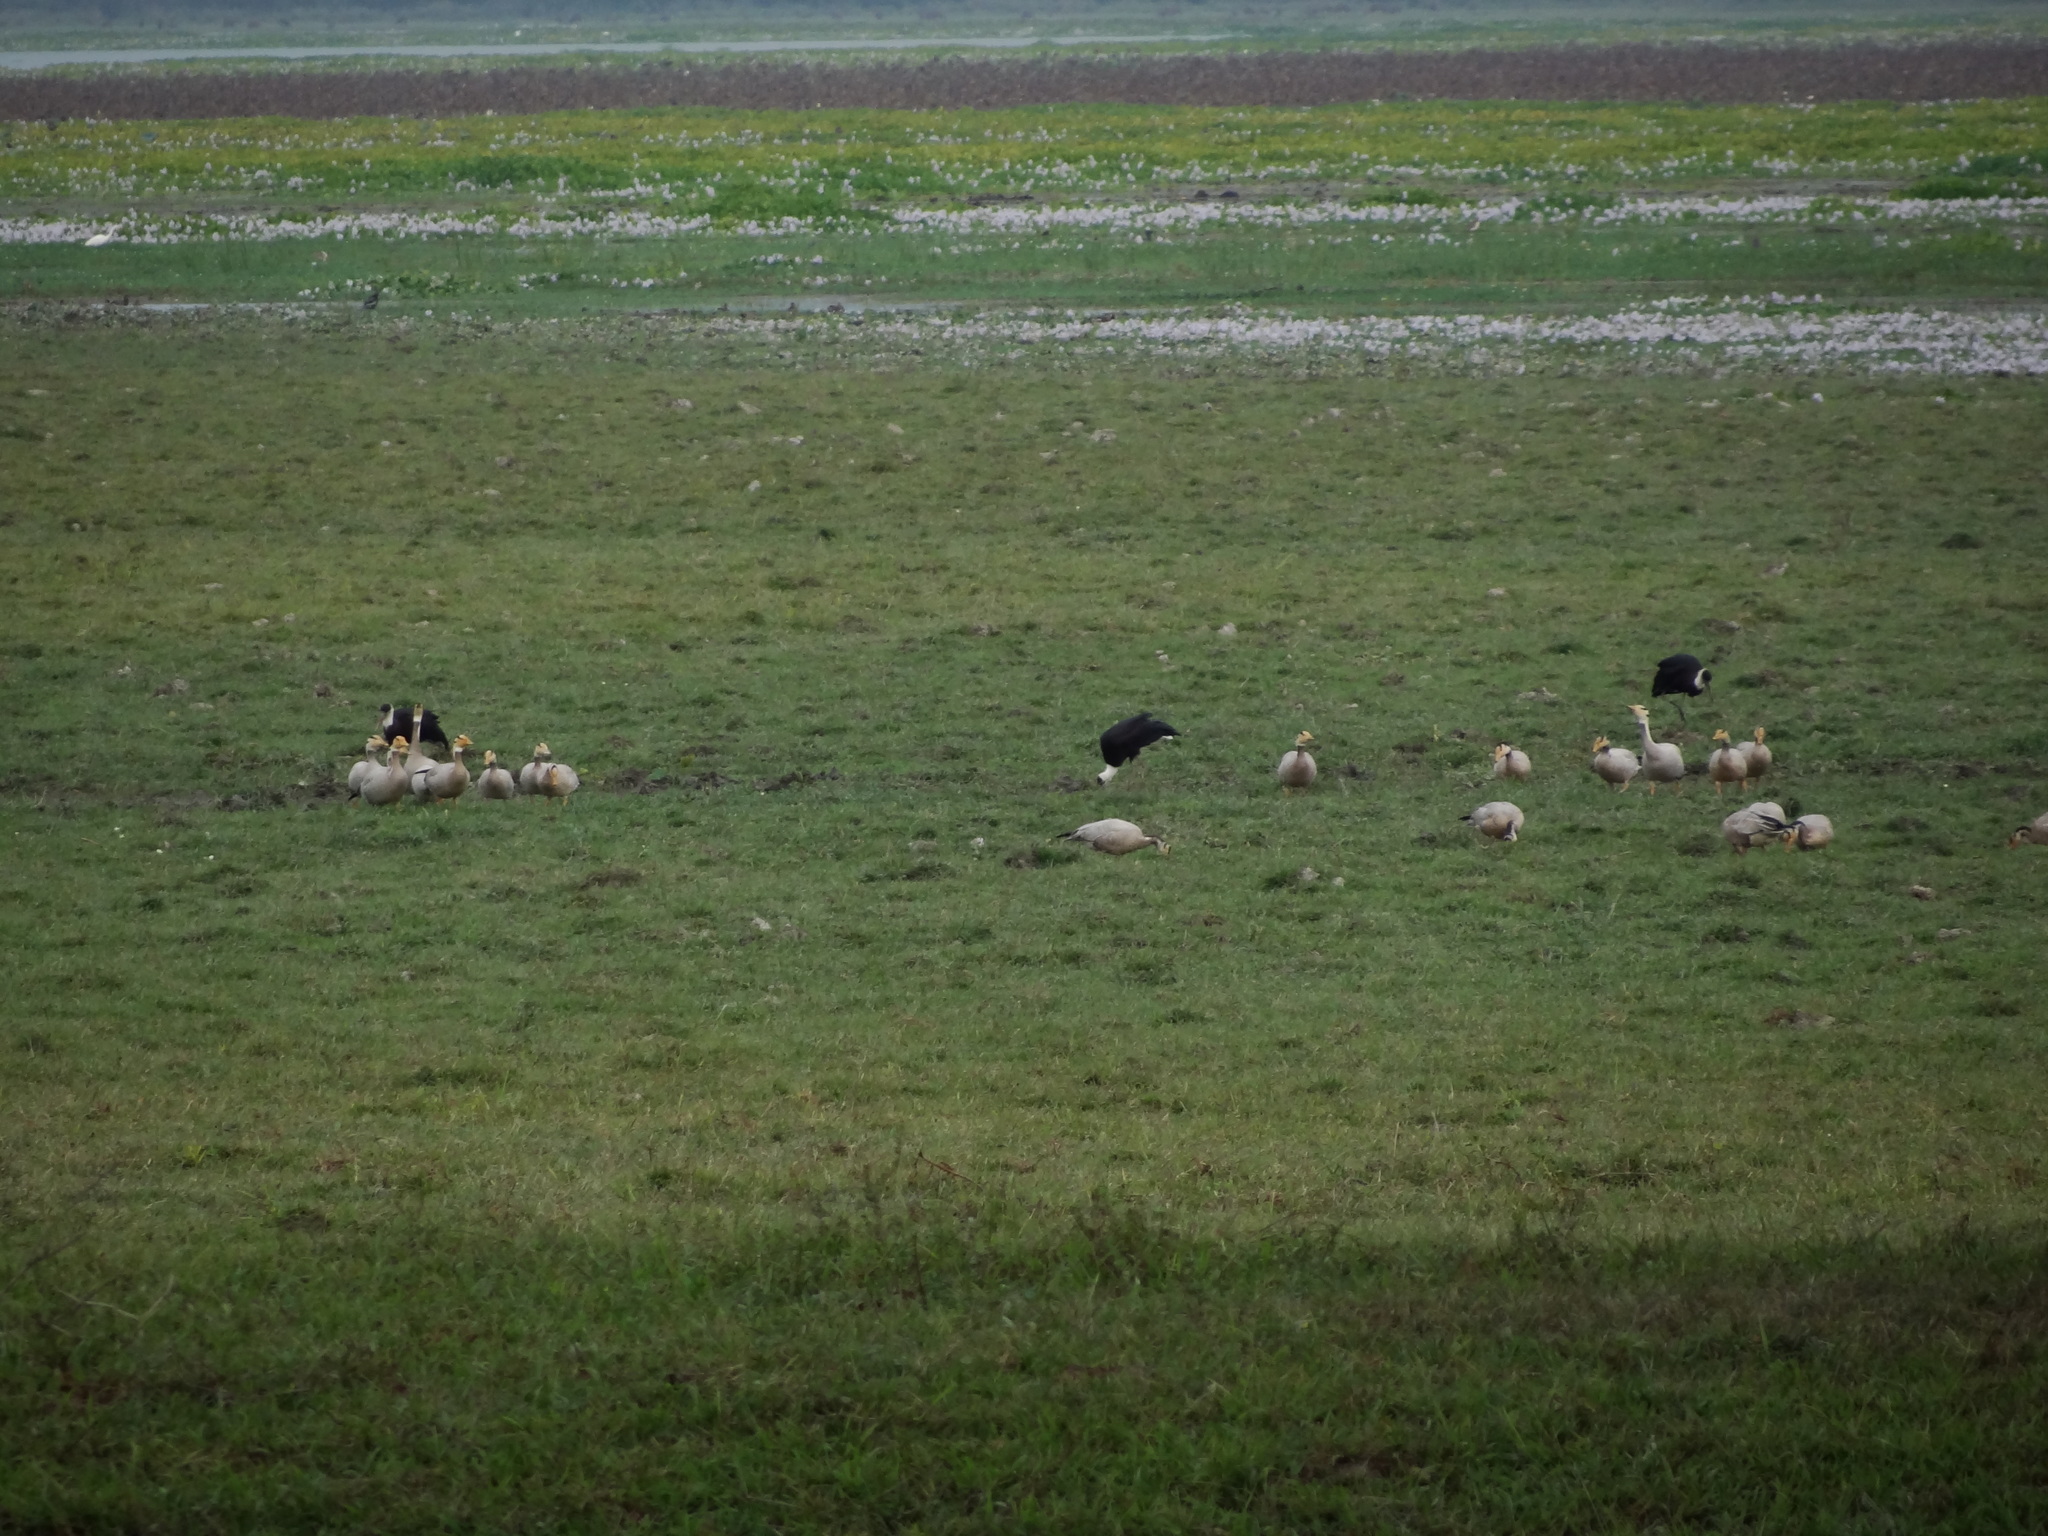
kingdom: Animalia
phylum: Chordata
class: Aves
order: Anseriformes
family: Anatidae
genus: Anser
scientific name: Anser indicus
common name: Bar-headed goose
